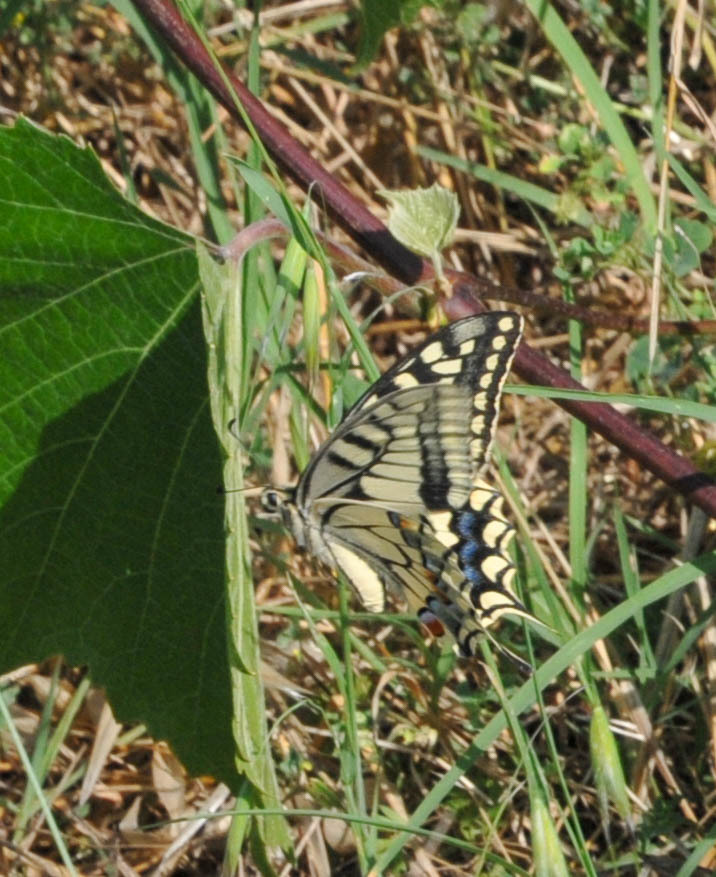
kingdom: Animalia
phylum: Arthropoda
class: Insecta
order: Lepidoptera
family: Papilionidae
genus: Papilio
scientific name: Papilio machaon
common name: Swallowtail
